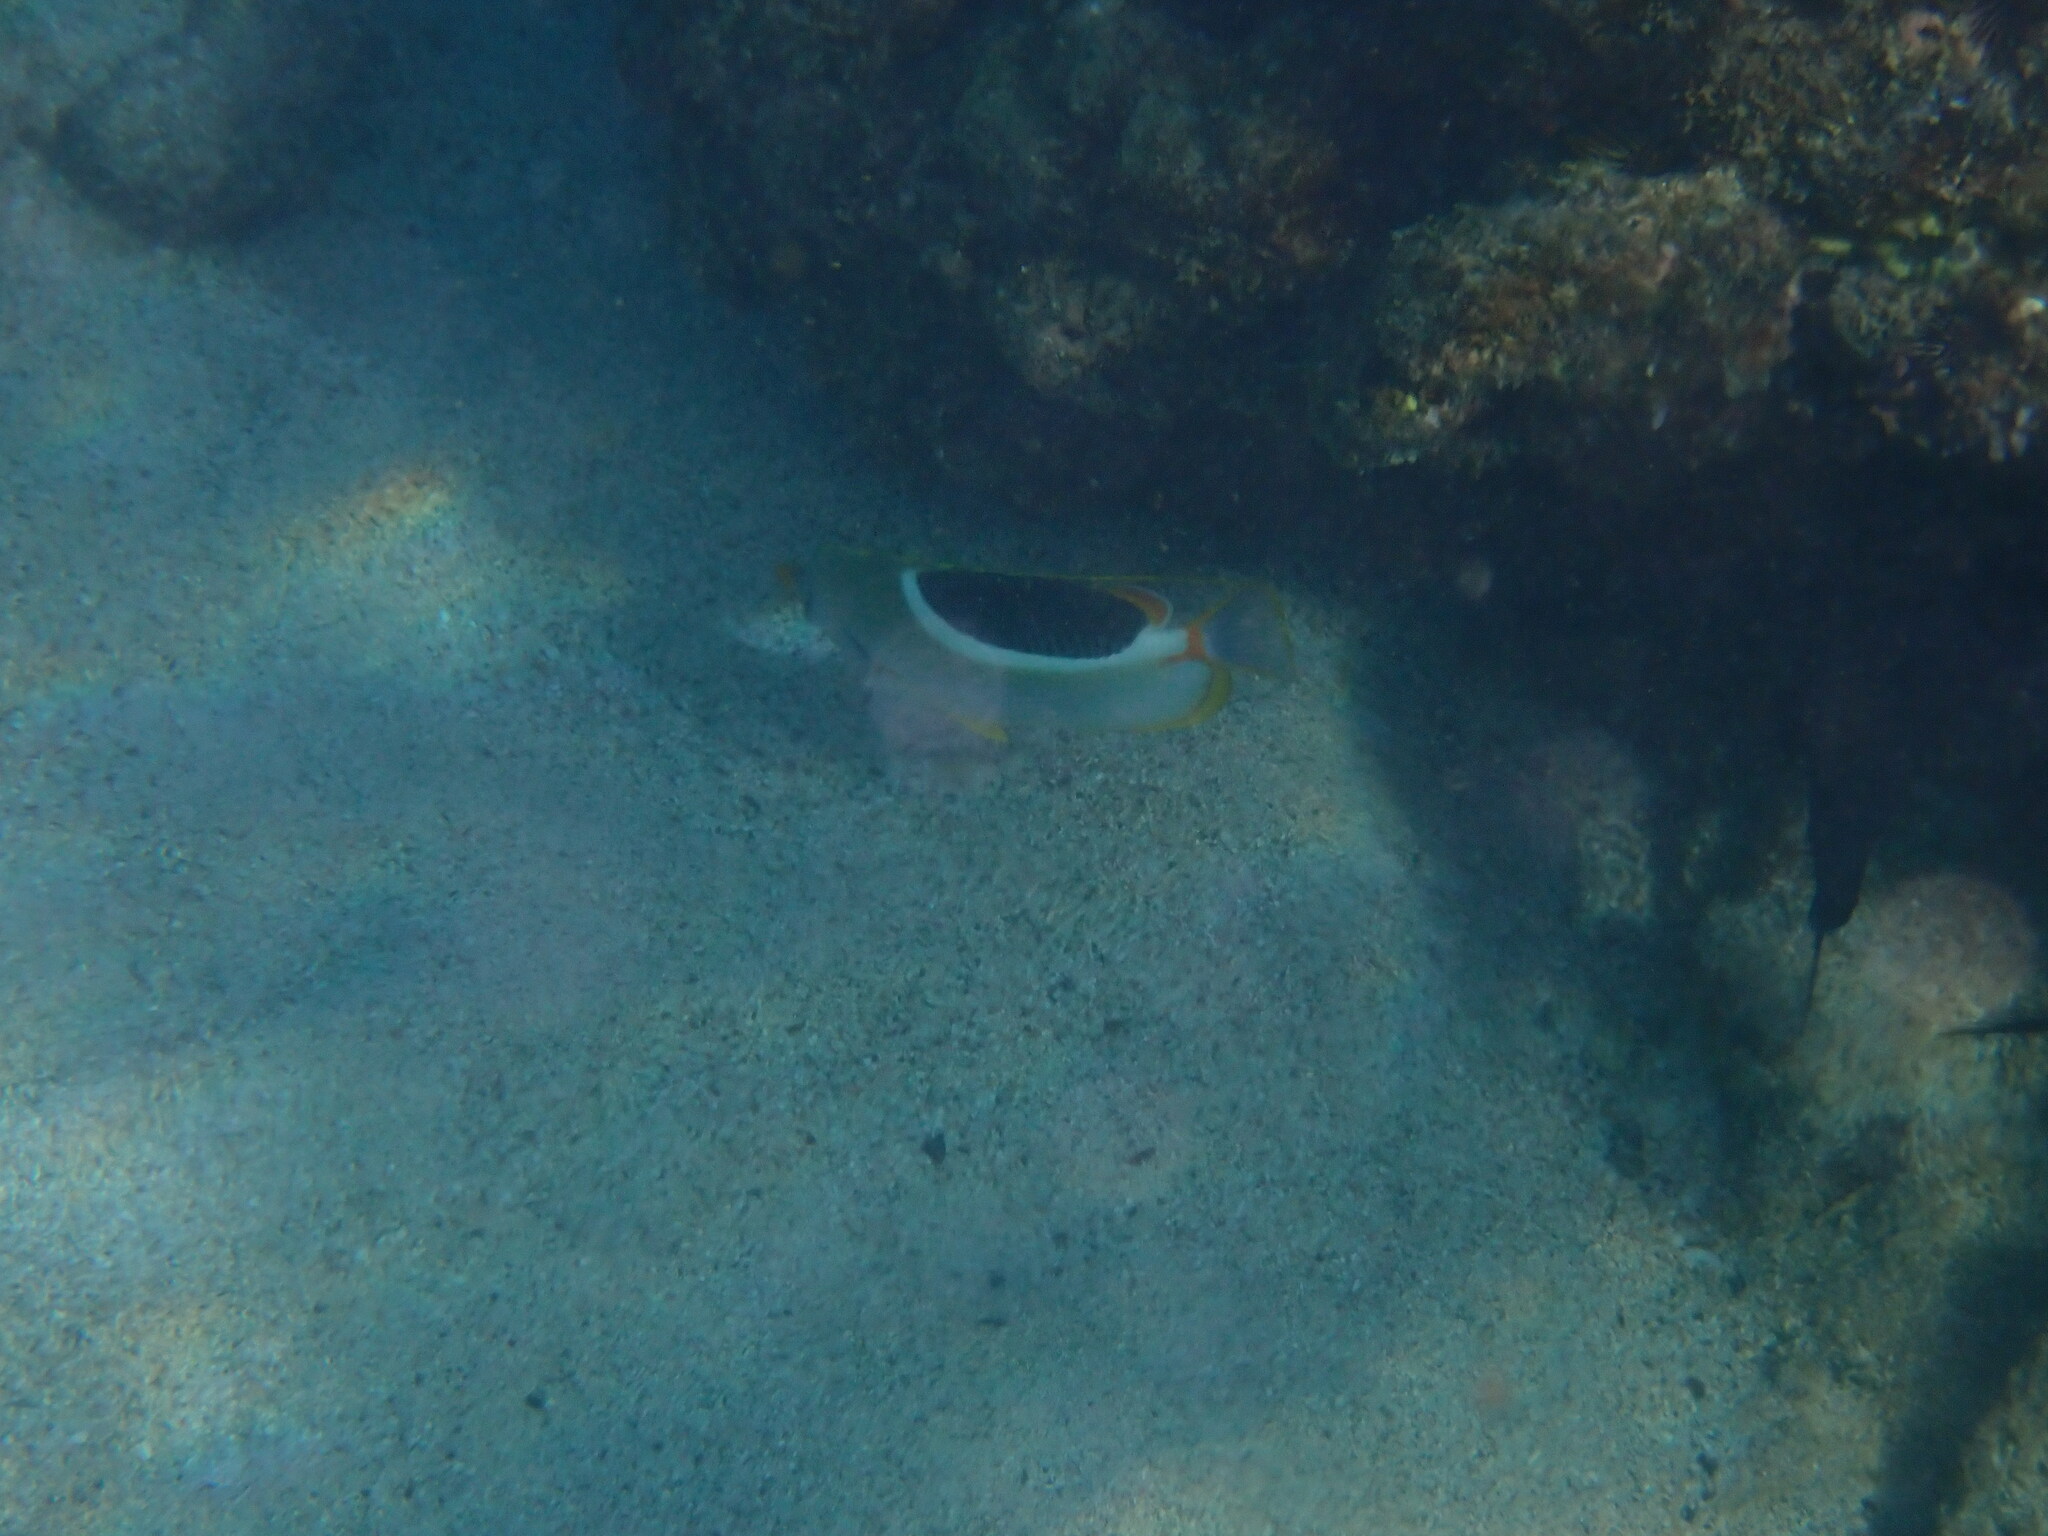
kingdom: Animalia
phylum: Chordata
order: Perciformes
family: Chaetodontidae
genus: Chaetodon
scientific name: Chaetodon ephippium
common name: Saddled butterflyfish
